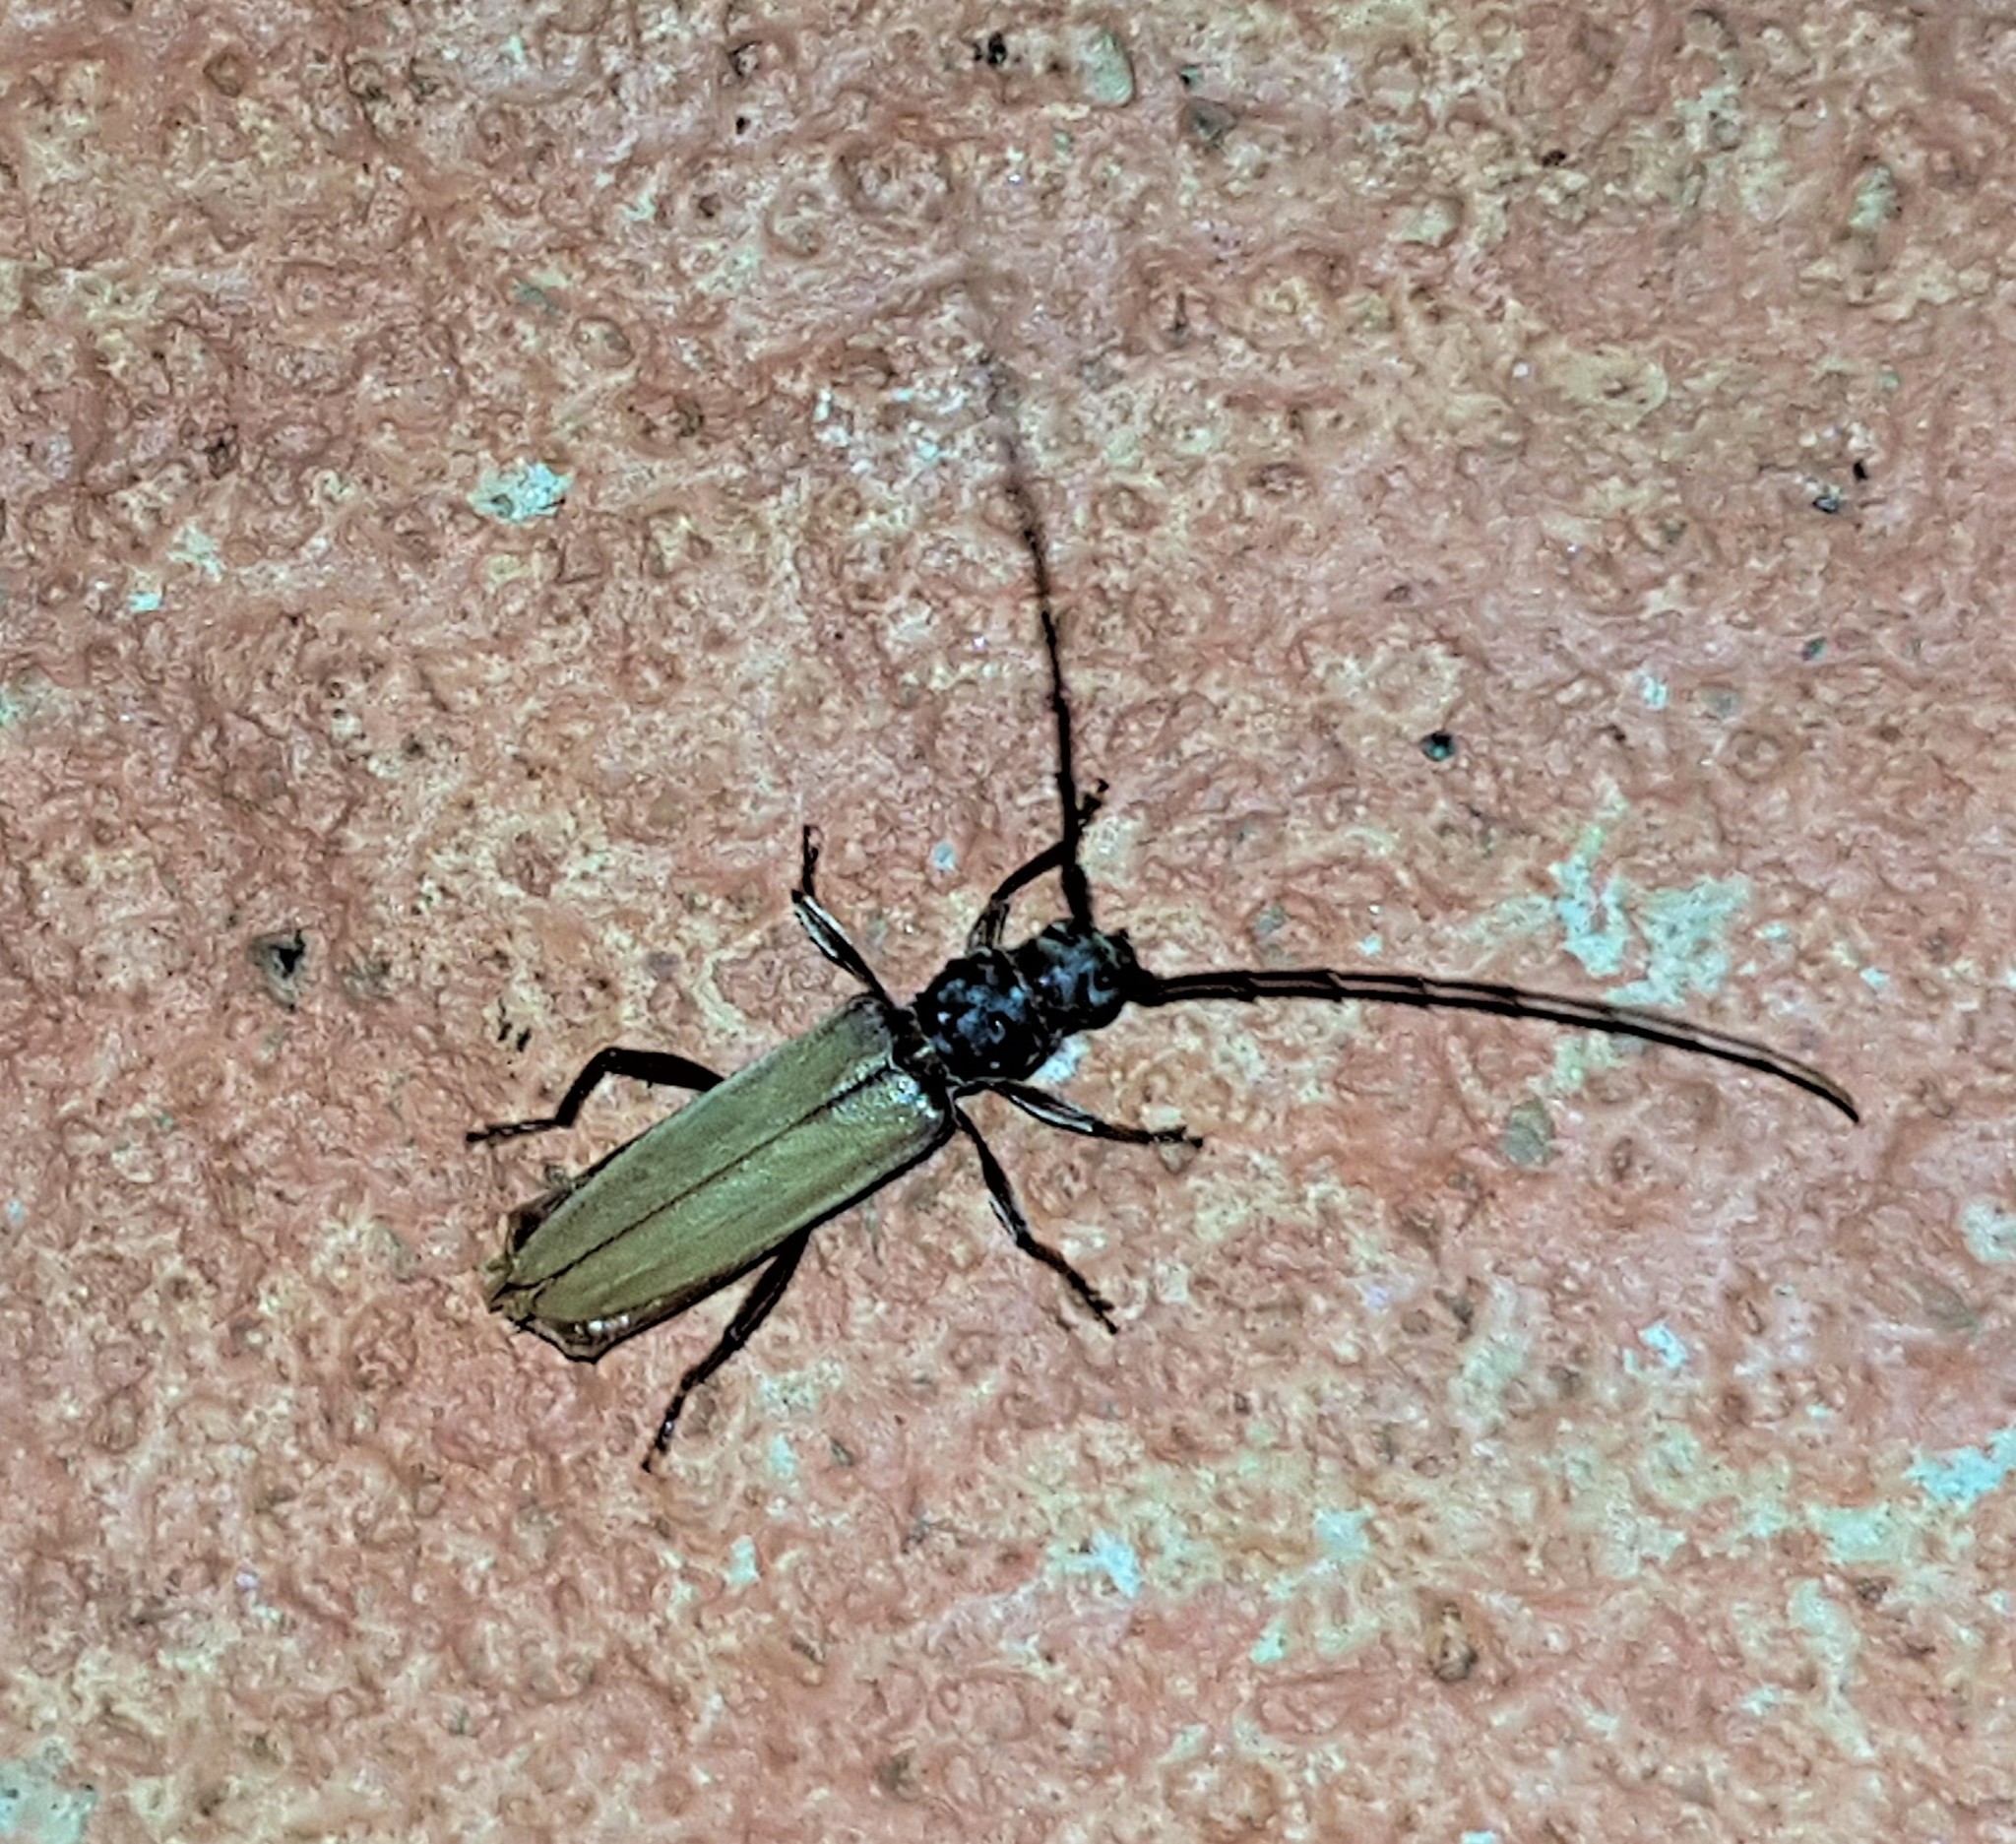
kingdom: Animalia
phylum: Arthropoda
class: Insecta
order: Coleoptera
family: Cerambycidae
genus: Nephalius
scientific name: Nephalius cassus
